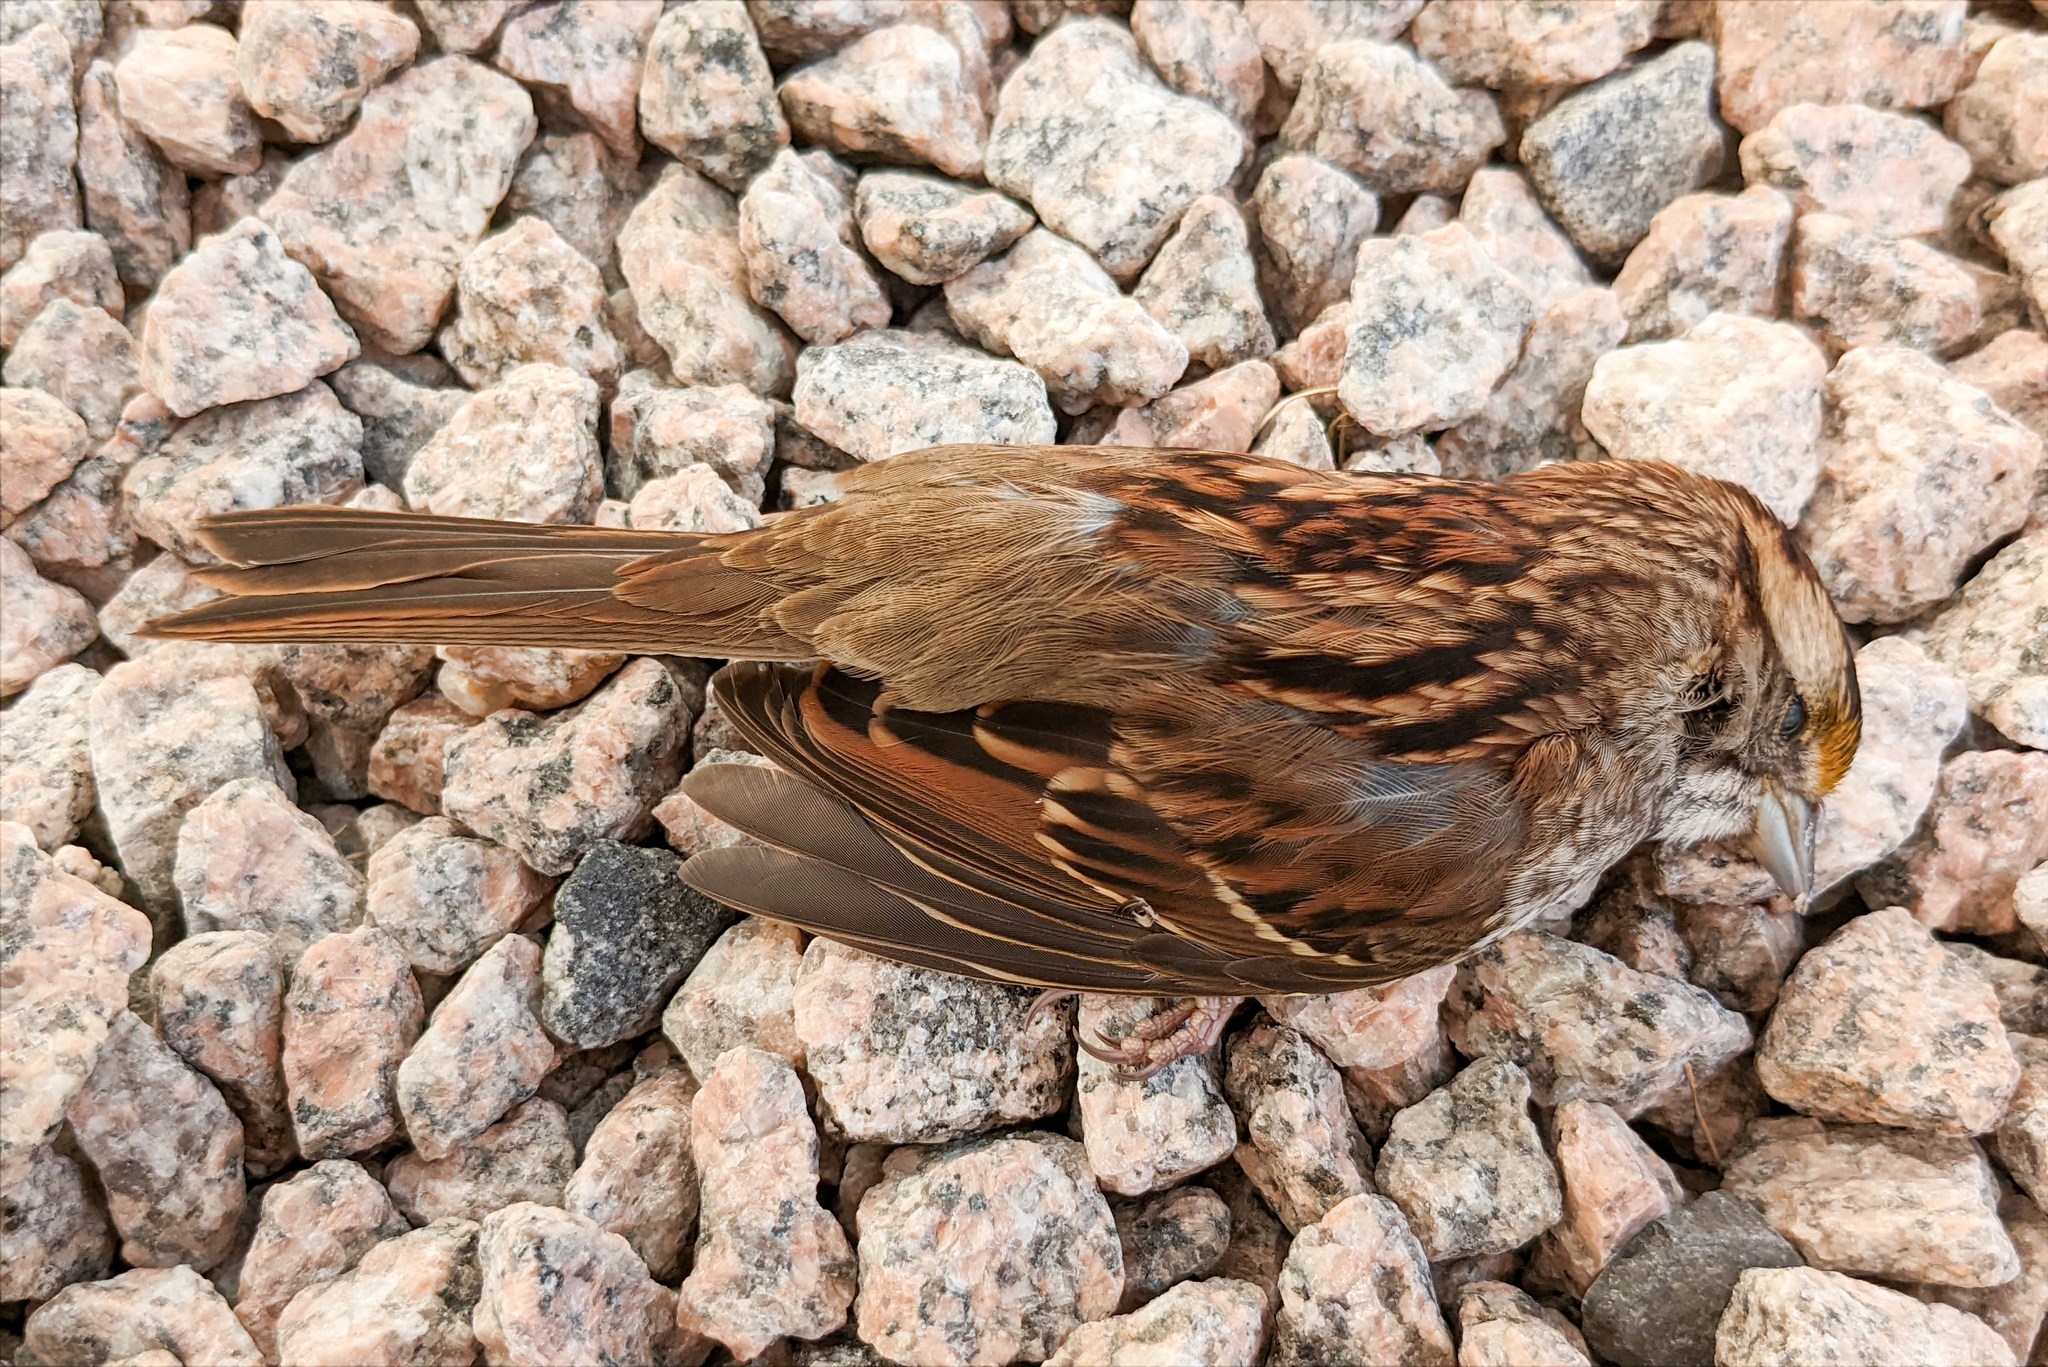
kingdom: Animalia
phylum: Chordata
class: Aves
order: Passeriformes
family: Passerellidae
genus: Zonotrichia
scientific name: Zonotrichia albicollis
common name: White-throated sparrow
